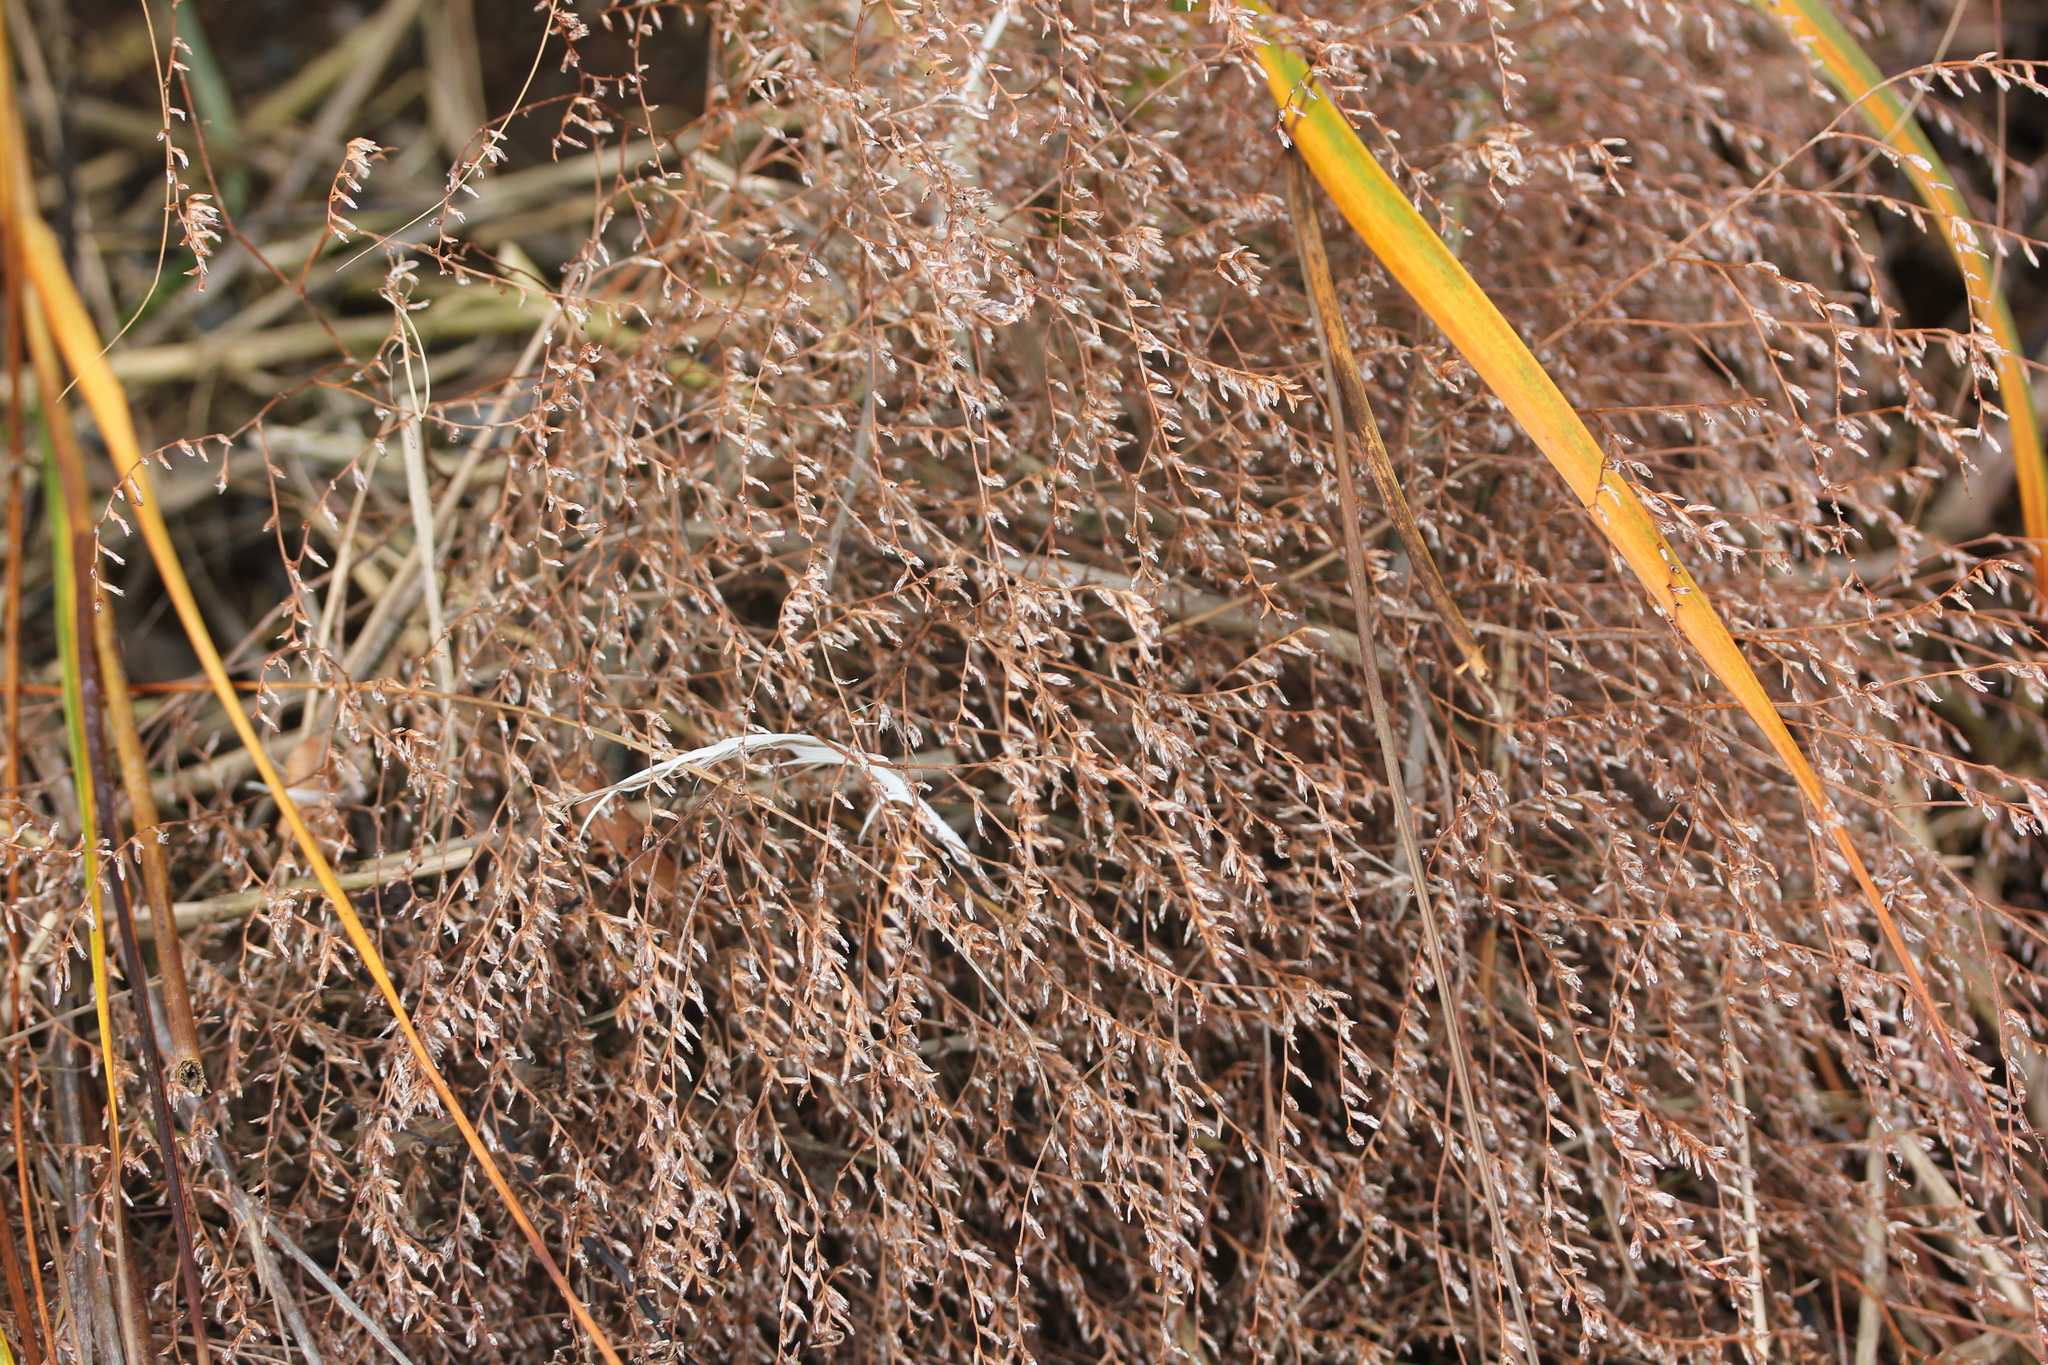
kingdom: Plantae
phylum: Tracheophyta
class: Magnoliopsida
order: Caryophyllales
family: Plumbaginaceae
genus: Limonium
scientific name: Limonium carolinianum
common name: Carolina sea lavender
